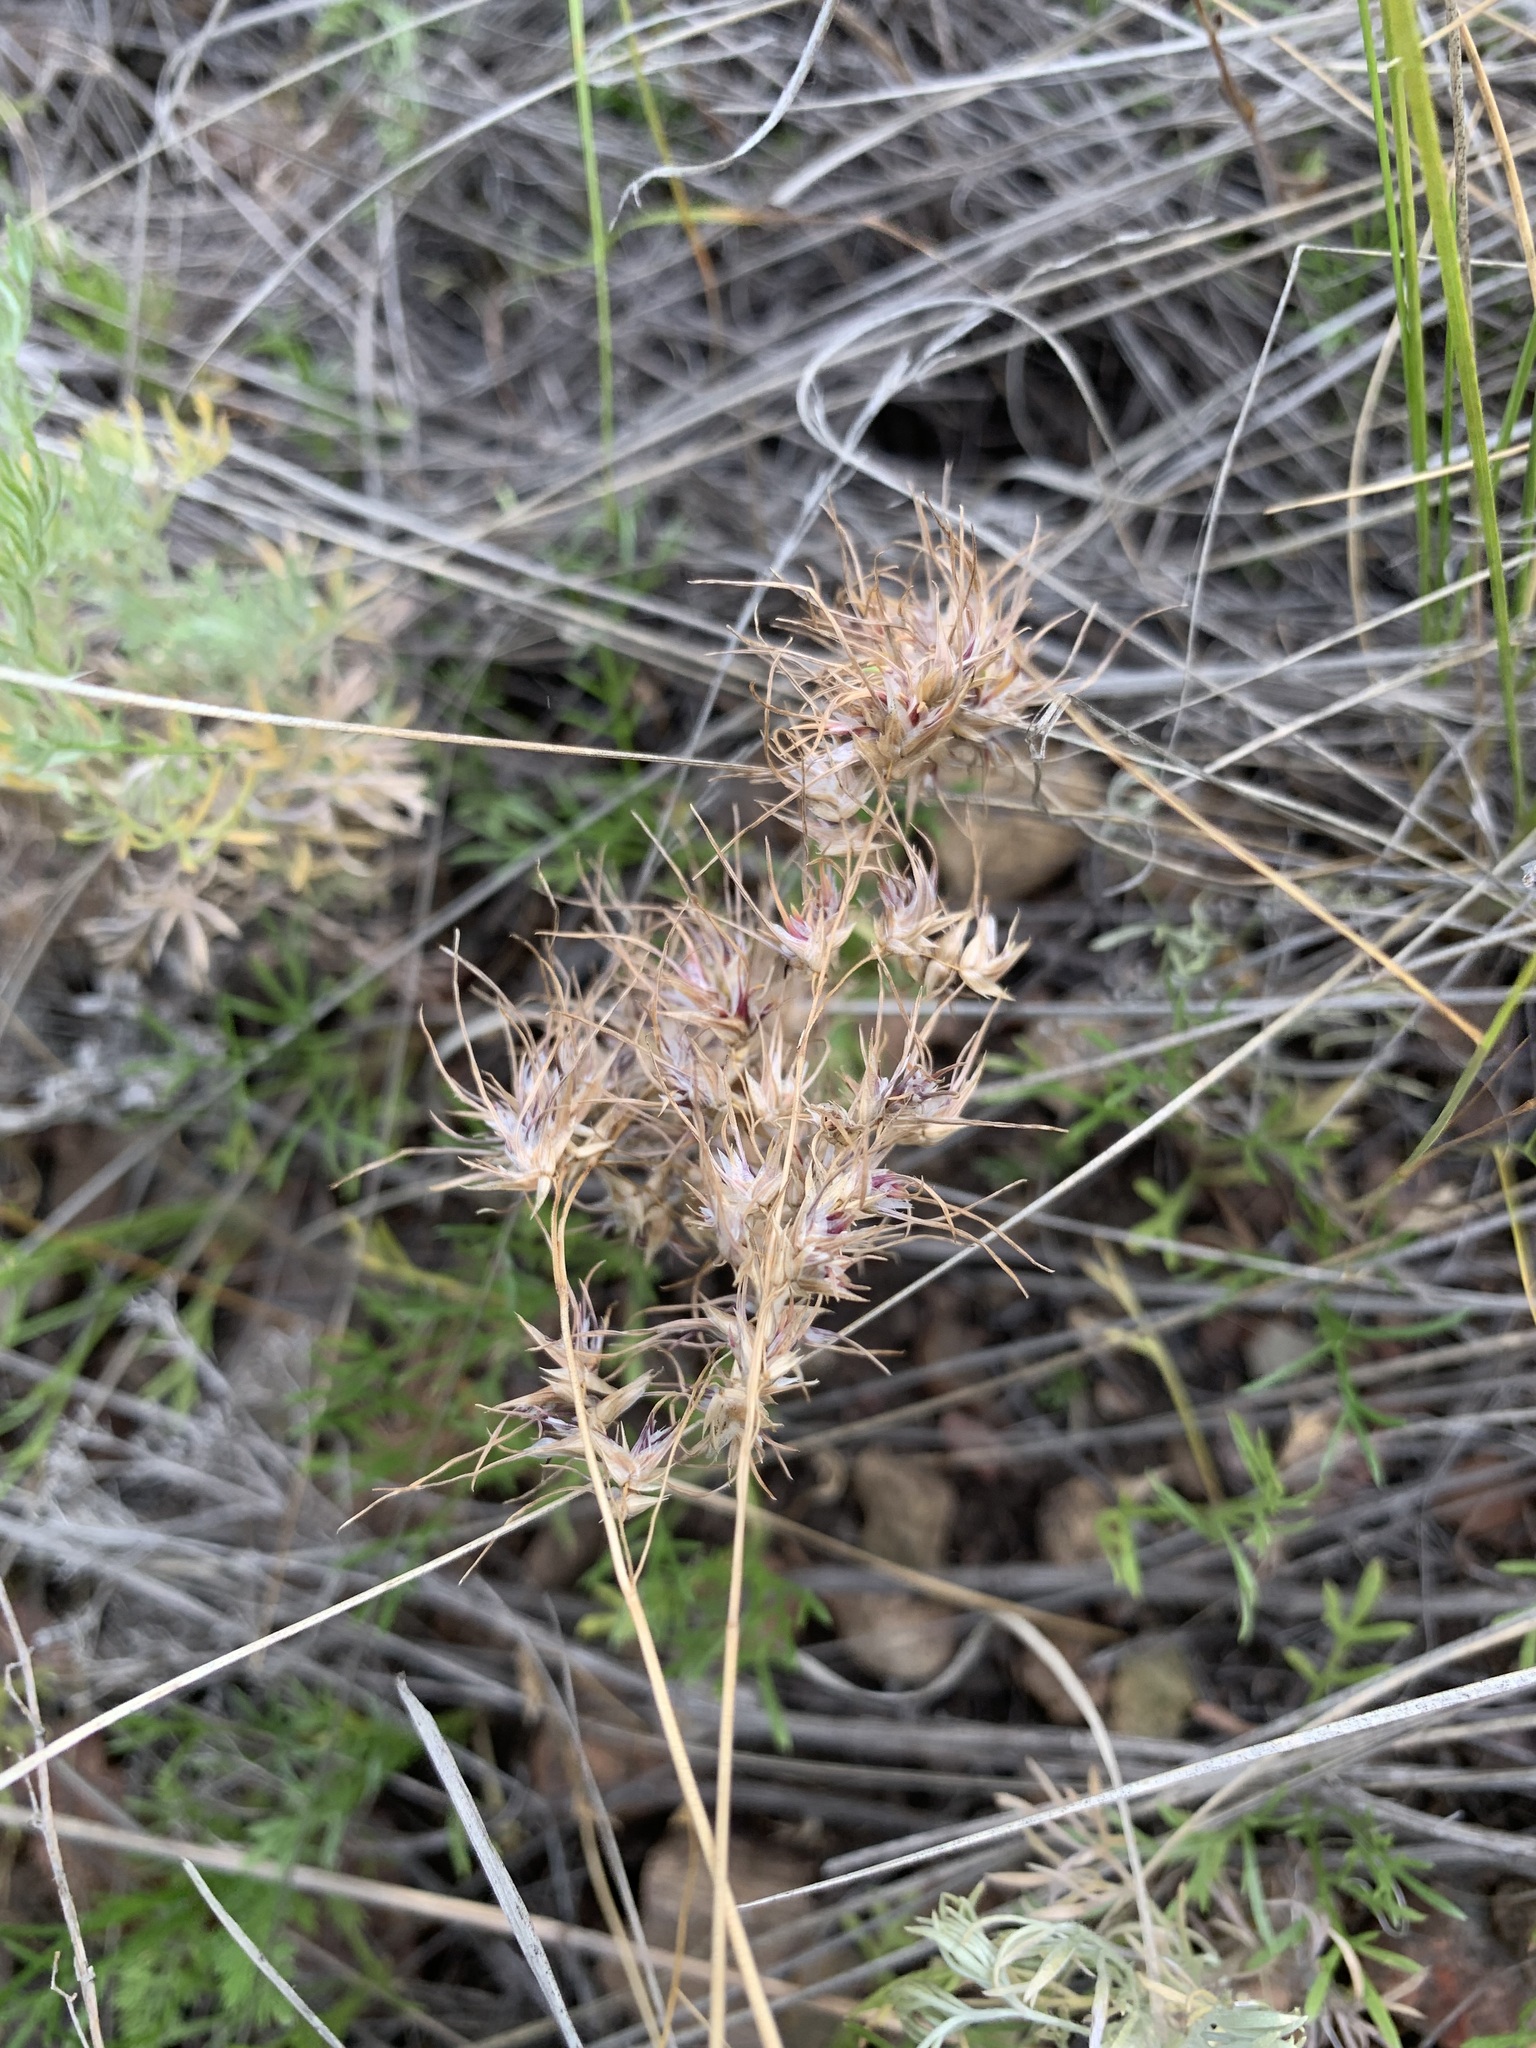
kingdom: Plantae
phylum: Tracheophyta
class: Liliopsida
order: Poales
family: Poaceae
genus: Poa
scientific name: Poa bulbosa
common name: Bulbous bluegrass
